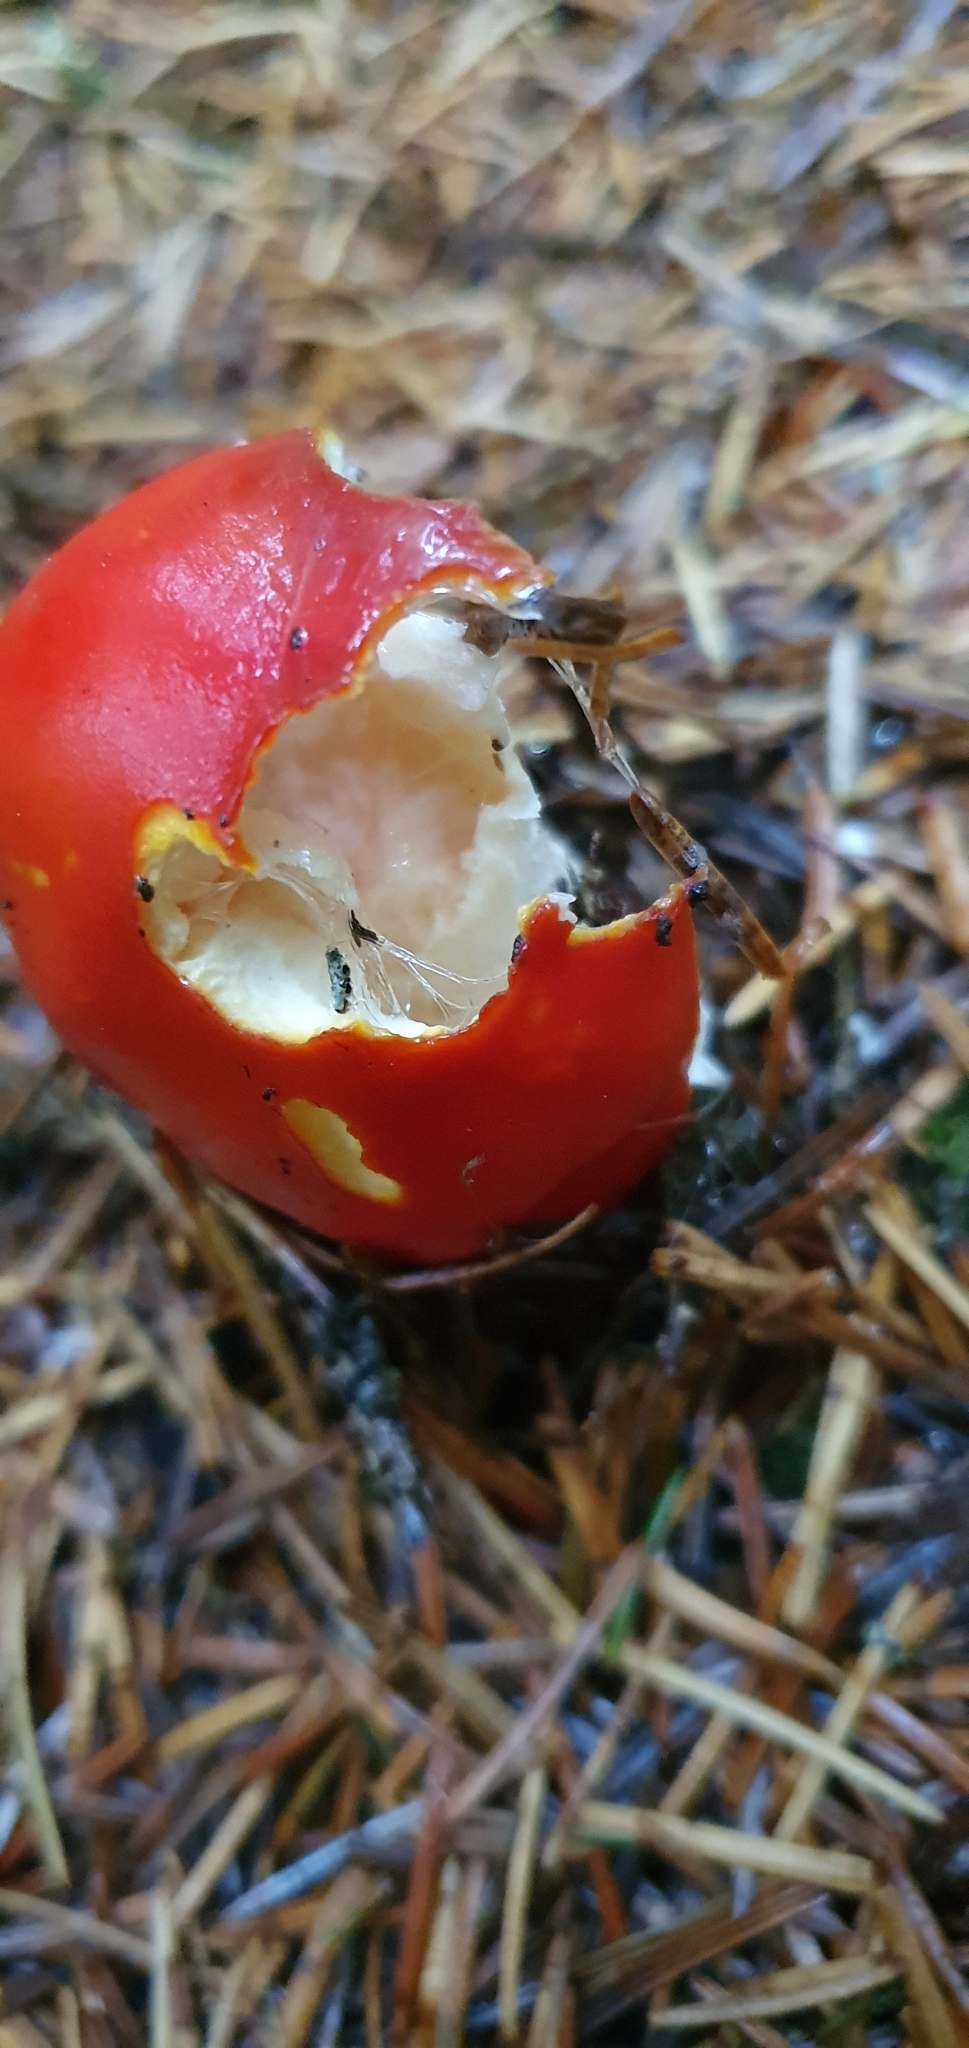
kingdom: Fungi
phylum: Basidiomycota
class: Agaricomycetes
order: Agaricales
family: Amanitaceae
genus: Amanita
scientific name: Amanita muscaria
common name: Fly agaric
